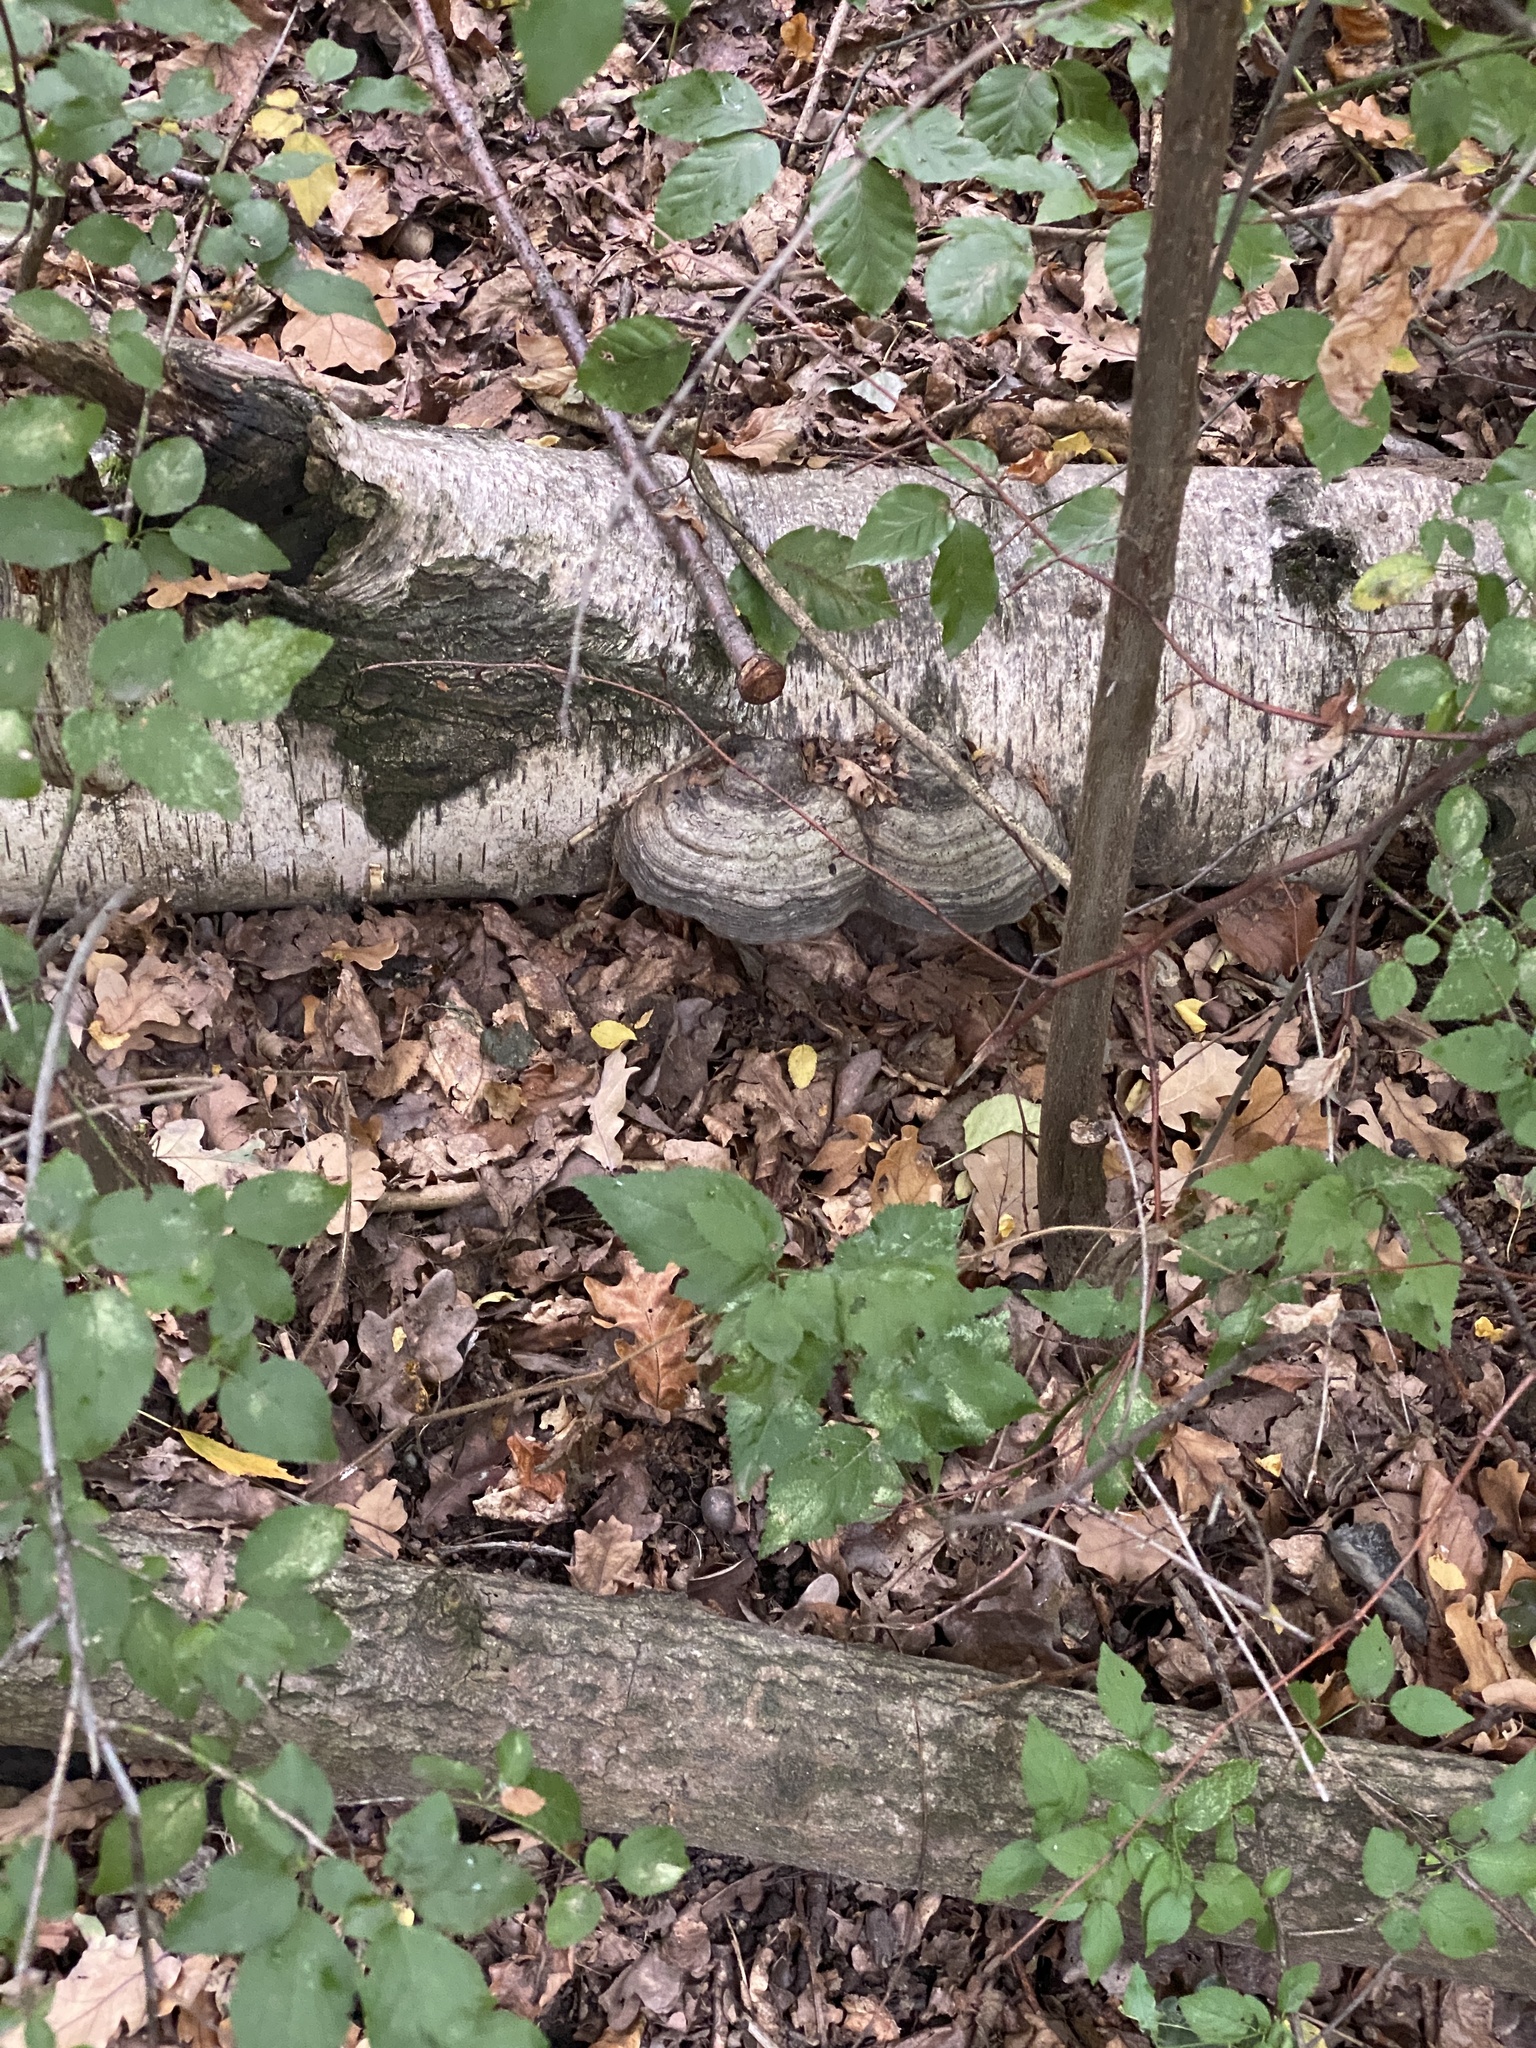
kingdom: Fungi
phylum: Basidiomycota
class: Agaricomycetes
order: Polyporales
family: Polyporaceae
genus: Fomes
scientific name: Fomes fomentarius
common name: Hoof fungus
